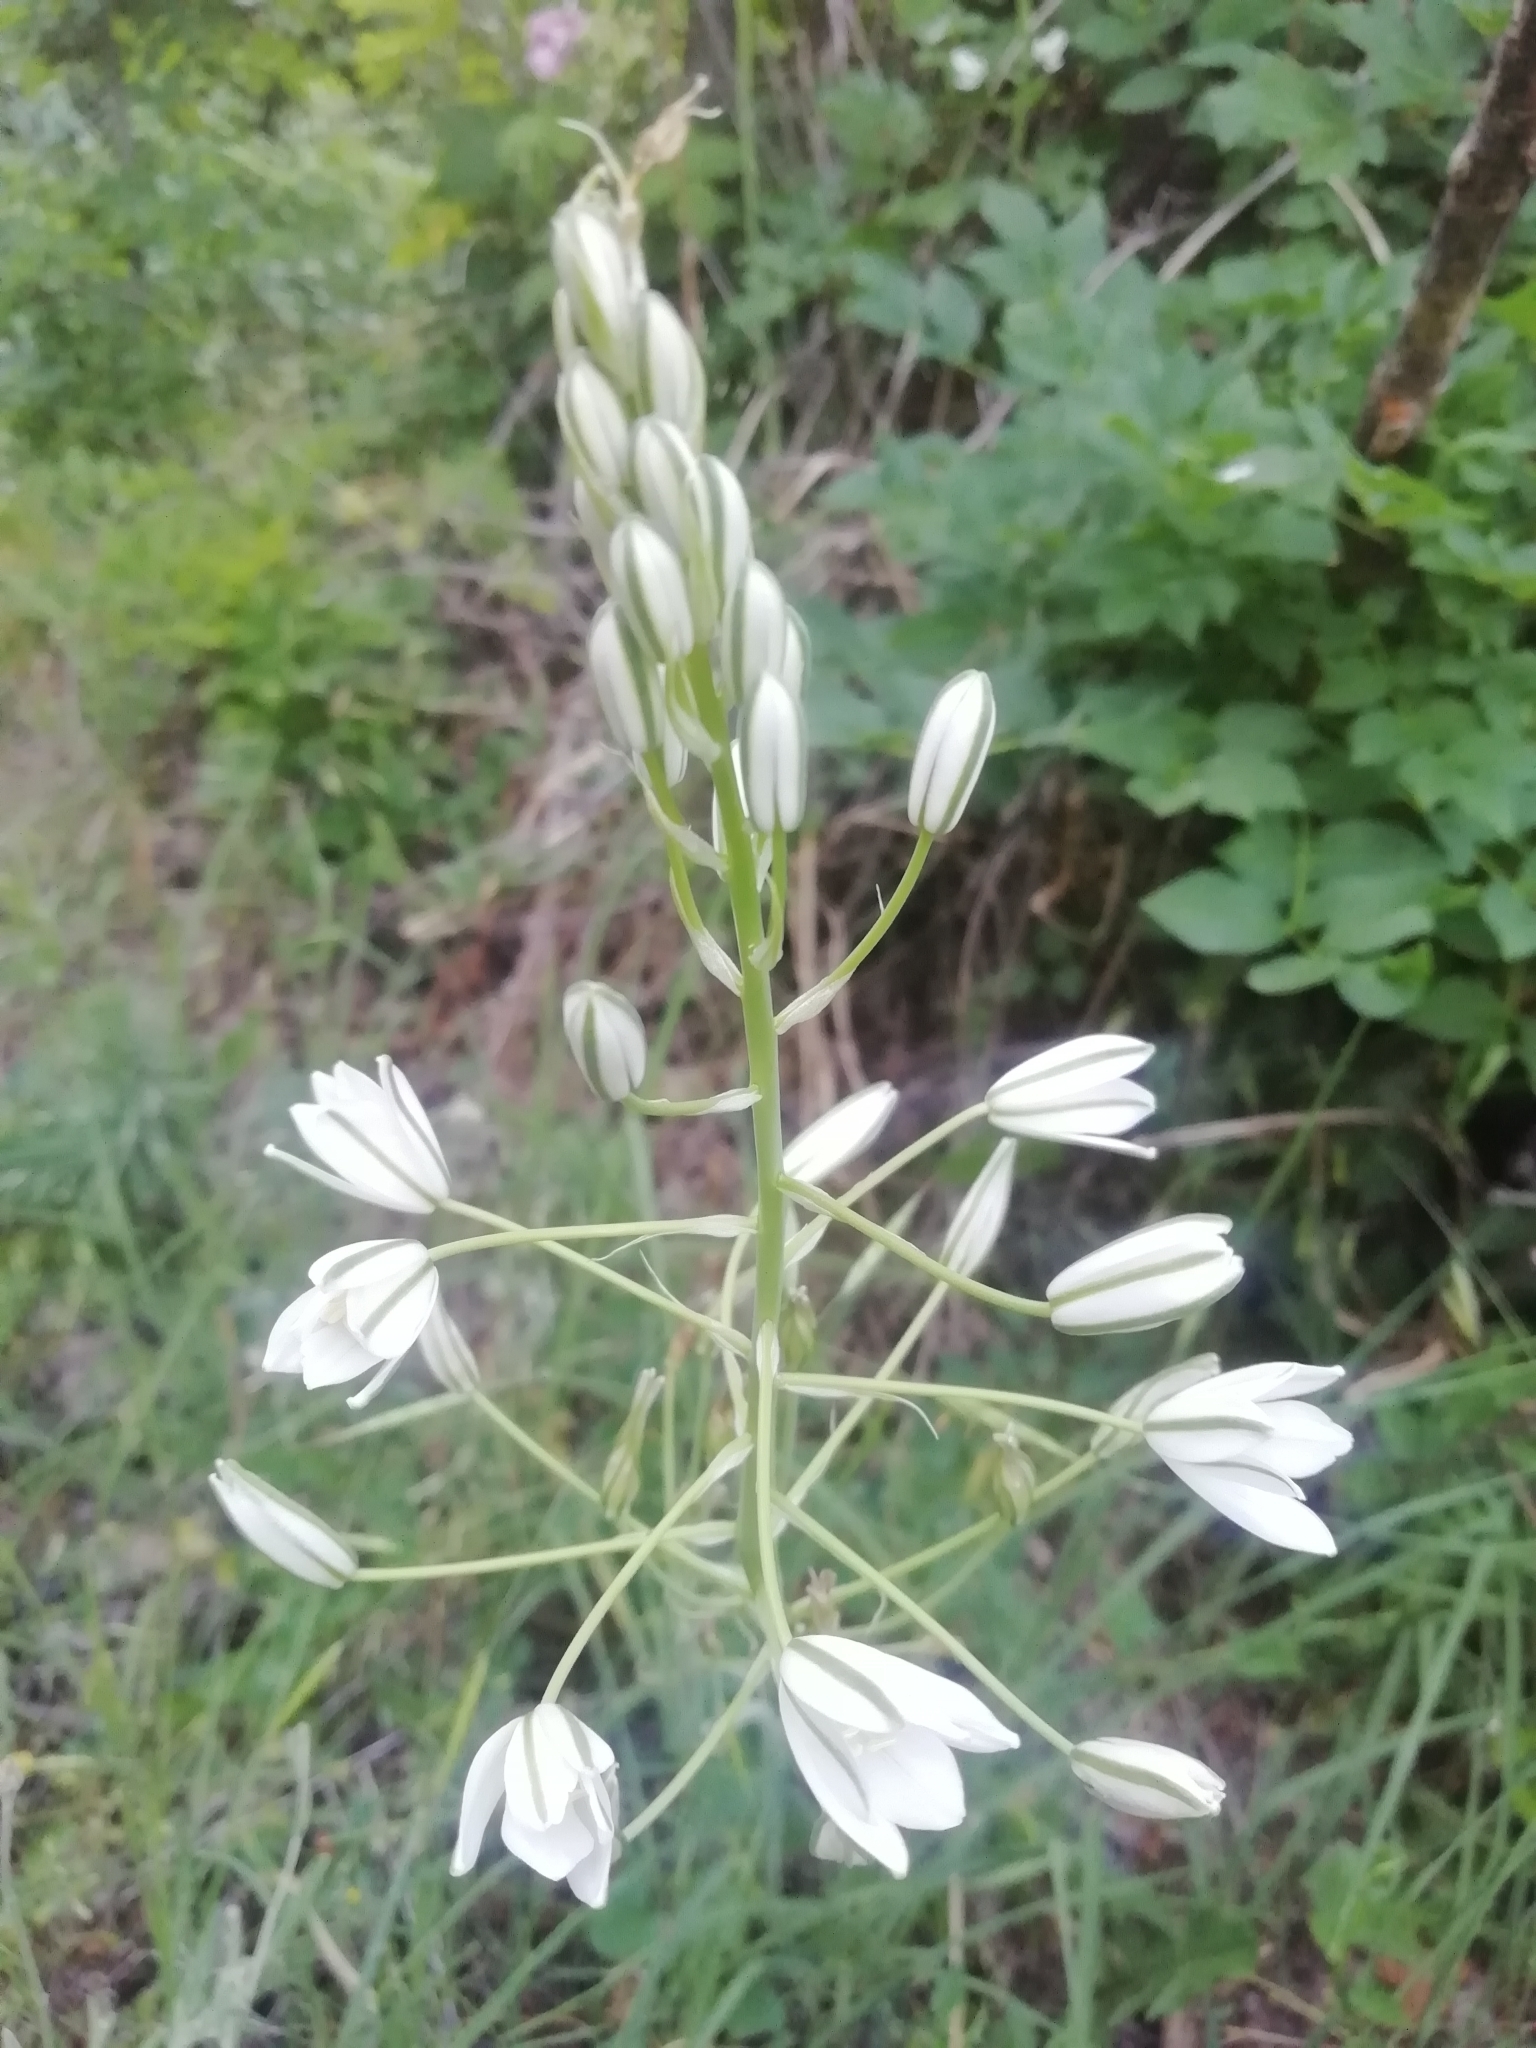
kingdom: Plantae
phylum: Tracheophyta
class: Liliopsida
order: Asparagales
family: Asparagaceae
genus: Ornithogalum
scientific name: Ornithogalum ponticum
